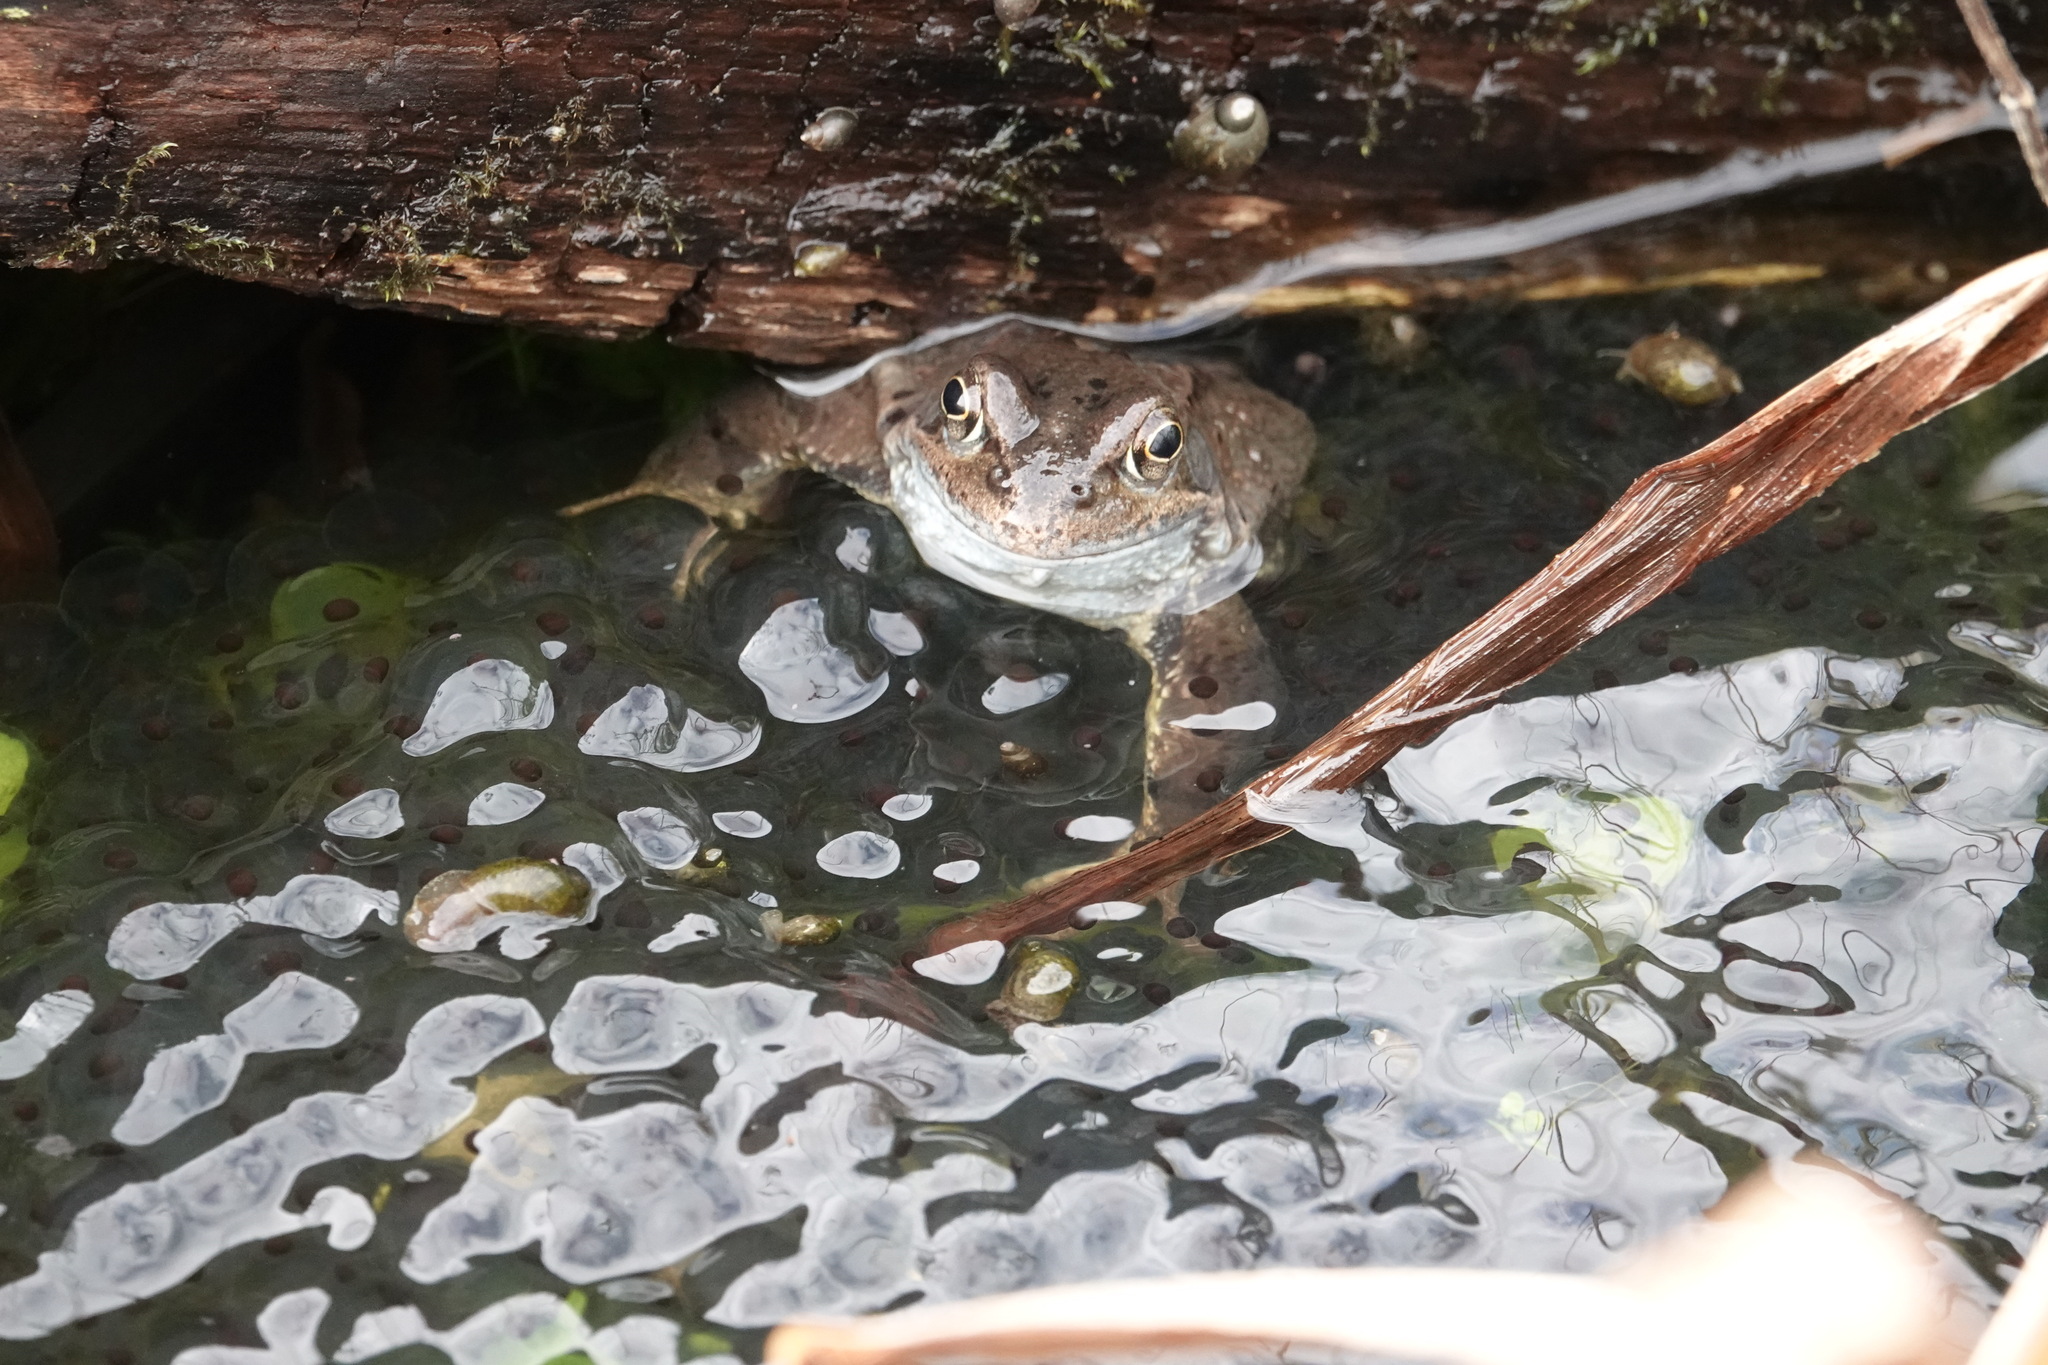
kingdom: Animalia
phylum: Chordata
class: Amphibia
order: Anura
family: Ranidae
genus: Rana
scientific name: Rana temporaria
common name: Common frog
